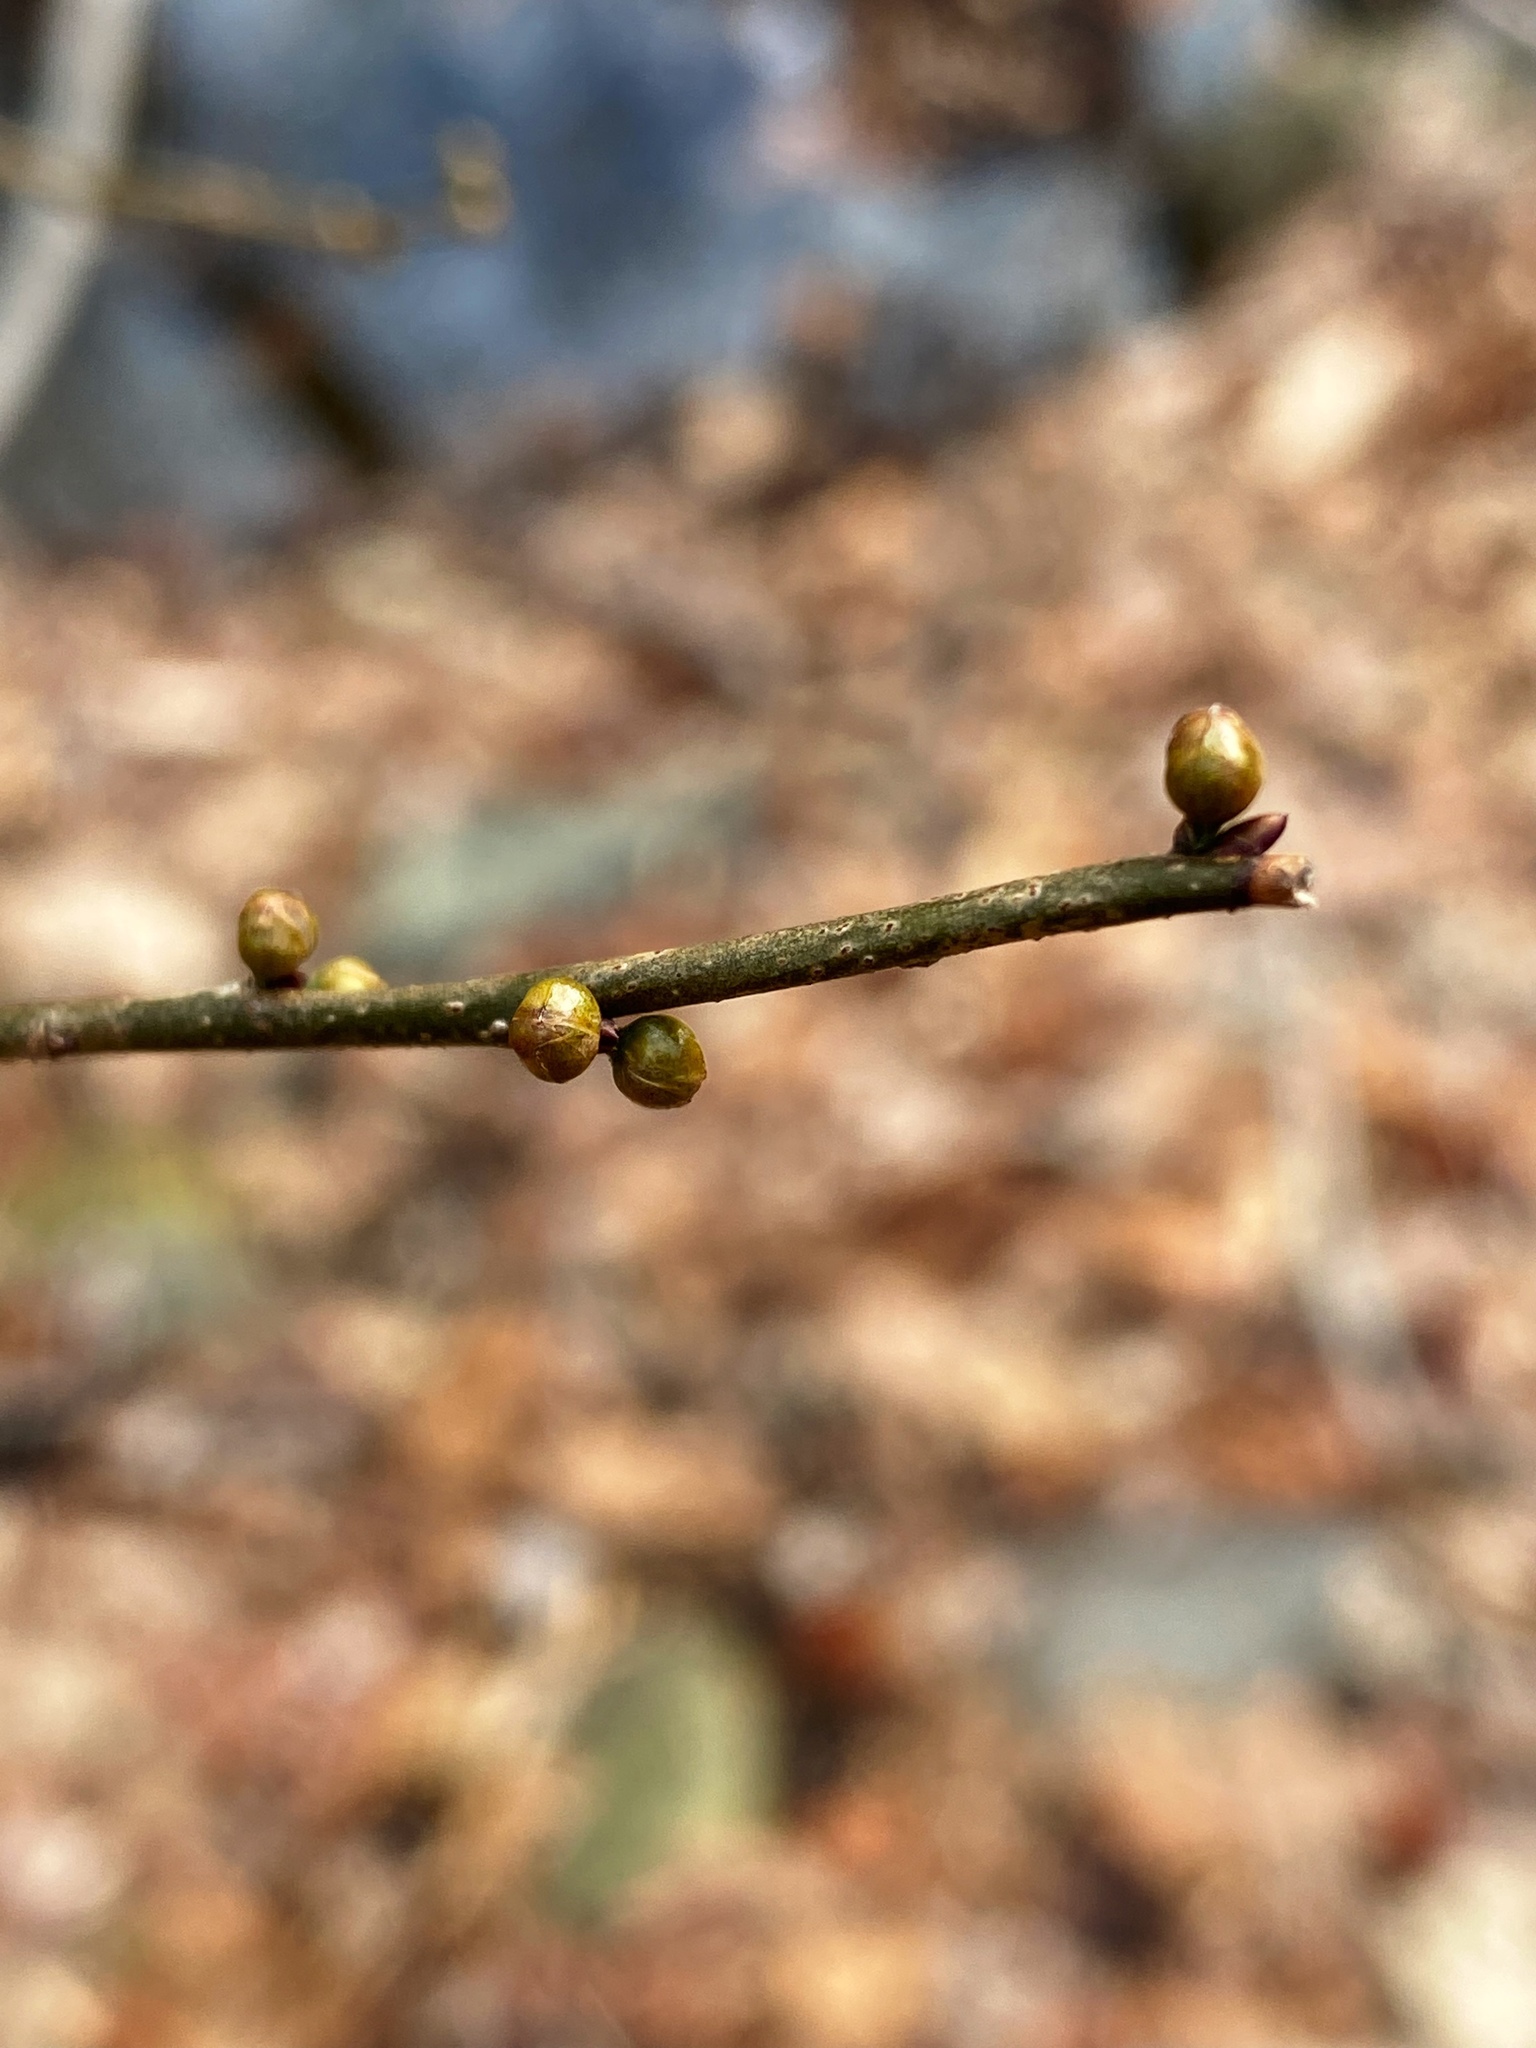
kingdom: Plantae
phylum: Tracheophyta
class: Magnoliopsida
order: Laurales
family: Lauraceae
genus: Lindera
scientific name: Lindera benzoin
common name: Spicebush
